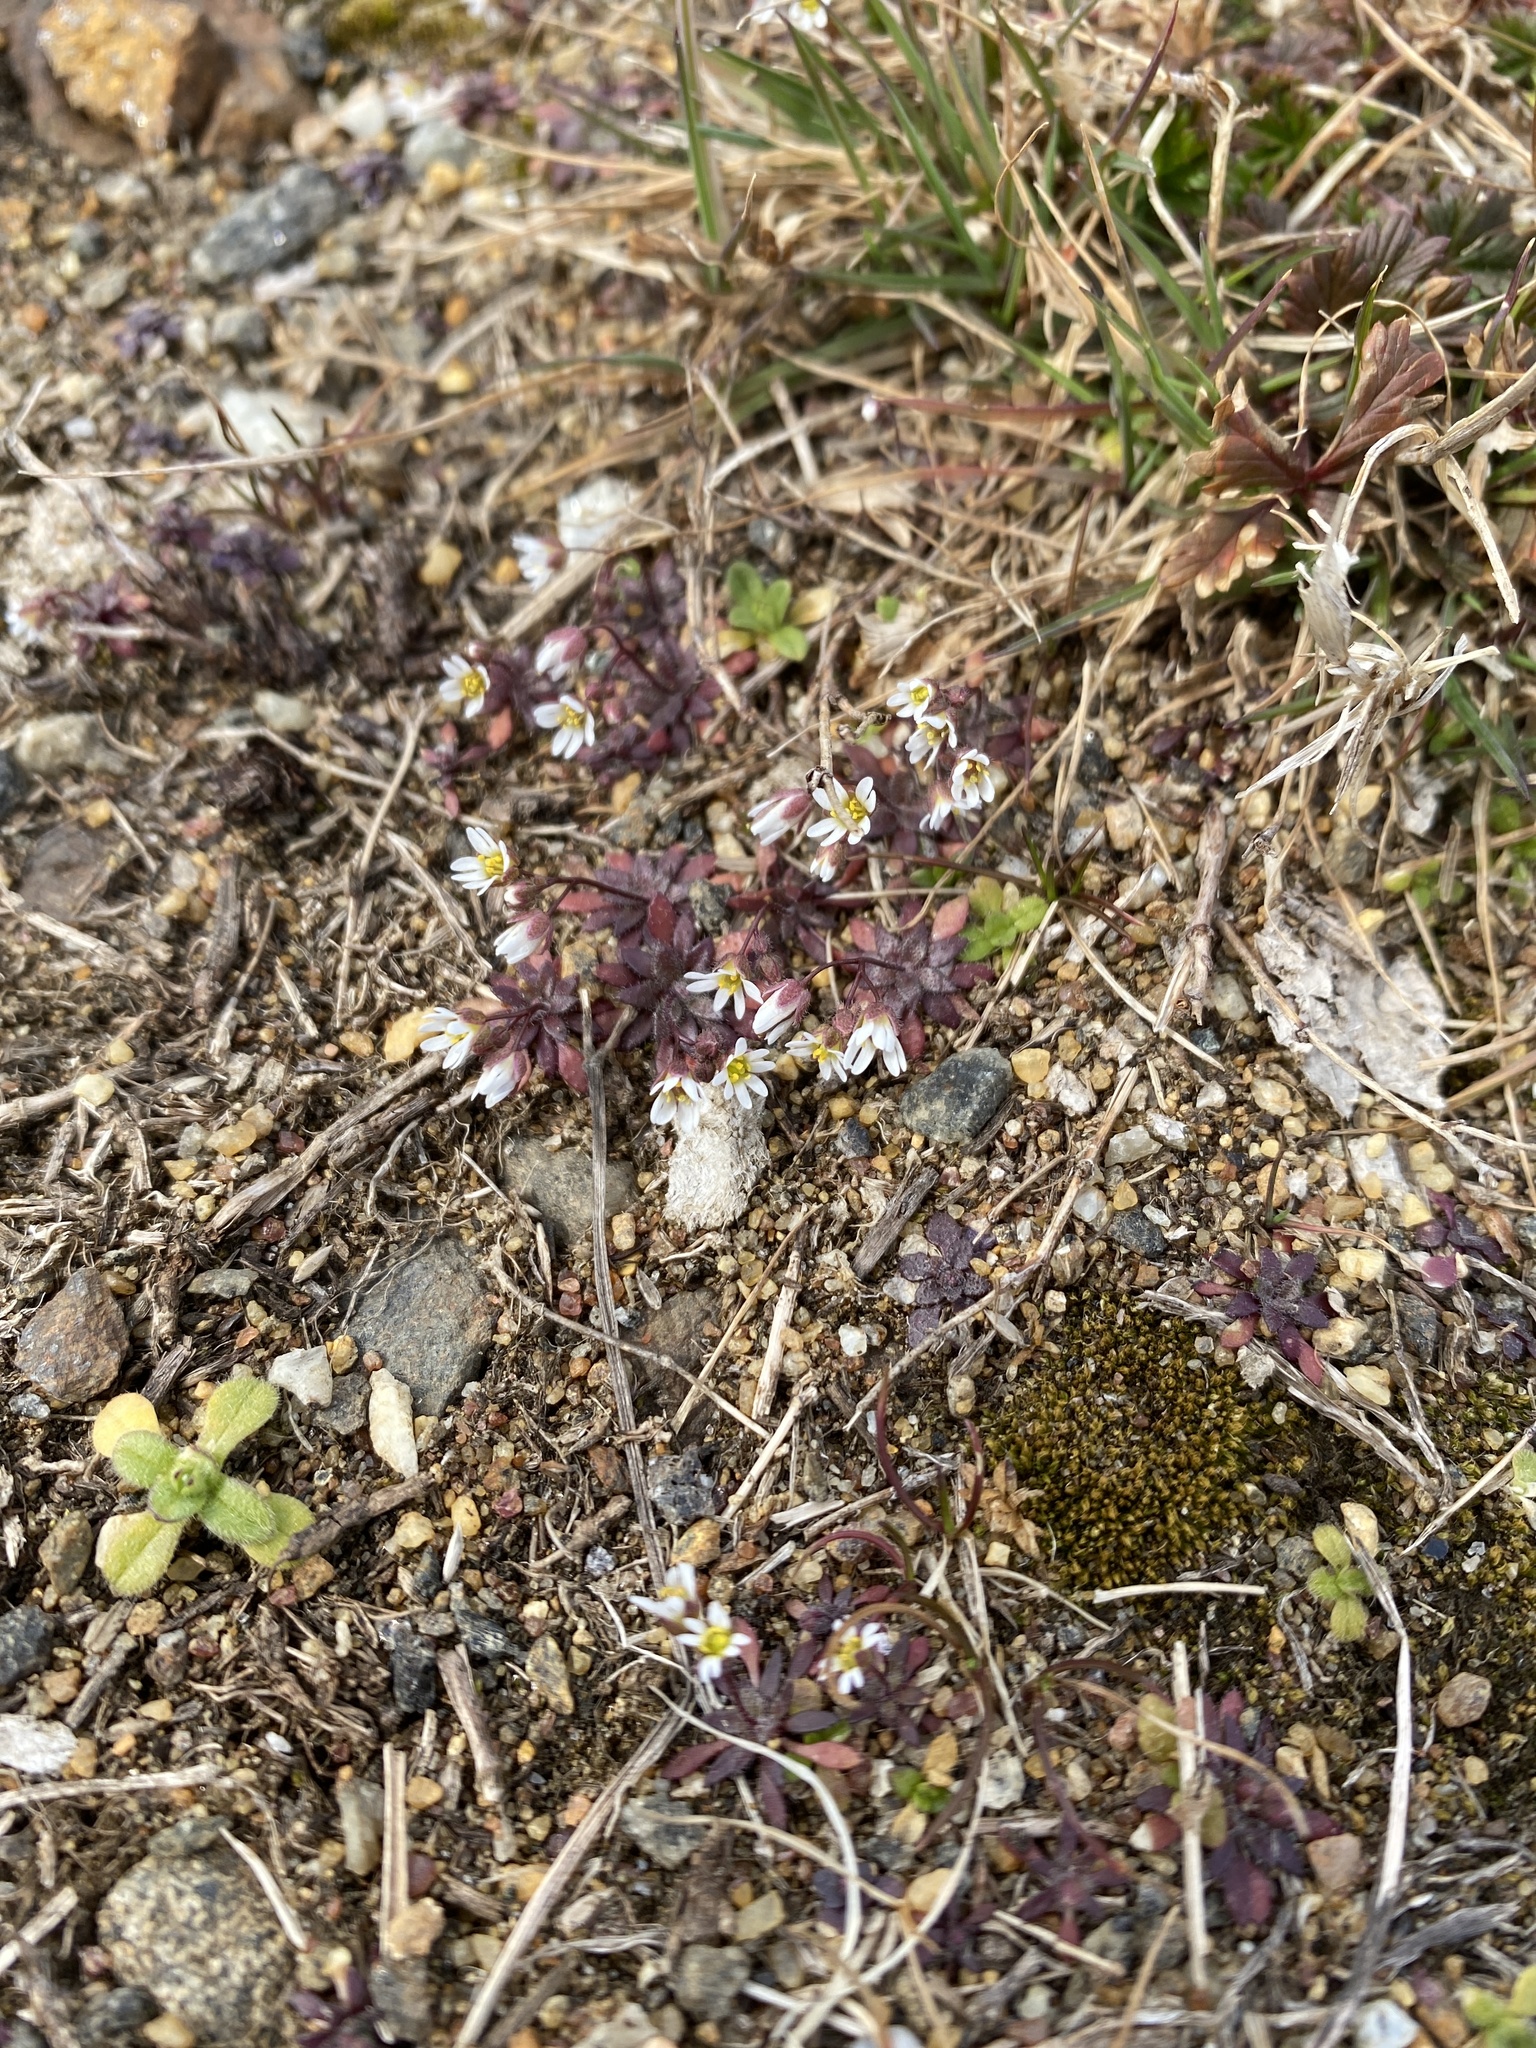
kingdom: Plantae
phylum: Tracheophyta
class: Magnoliopsida
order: Brassicales
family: Brassicaceae
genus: Draba
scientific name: Draba verna
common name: Spring draba
